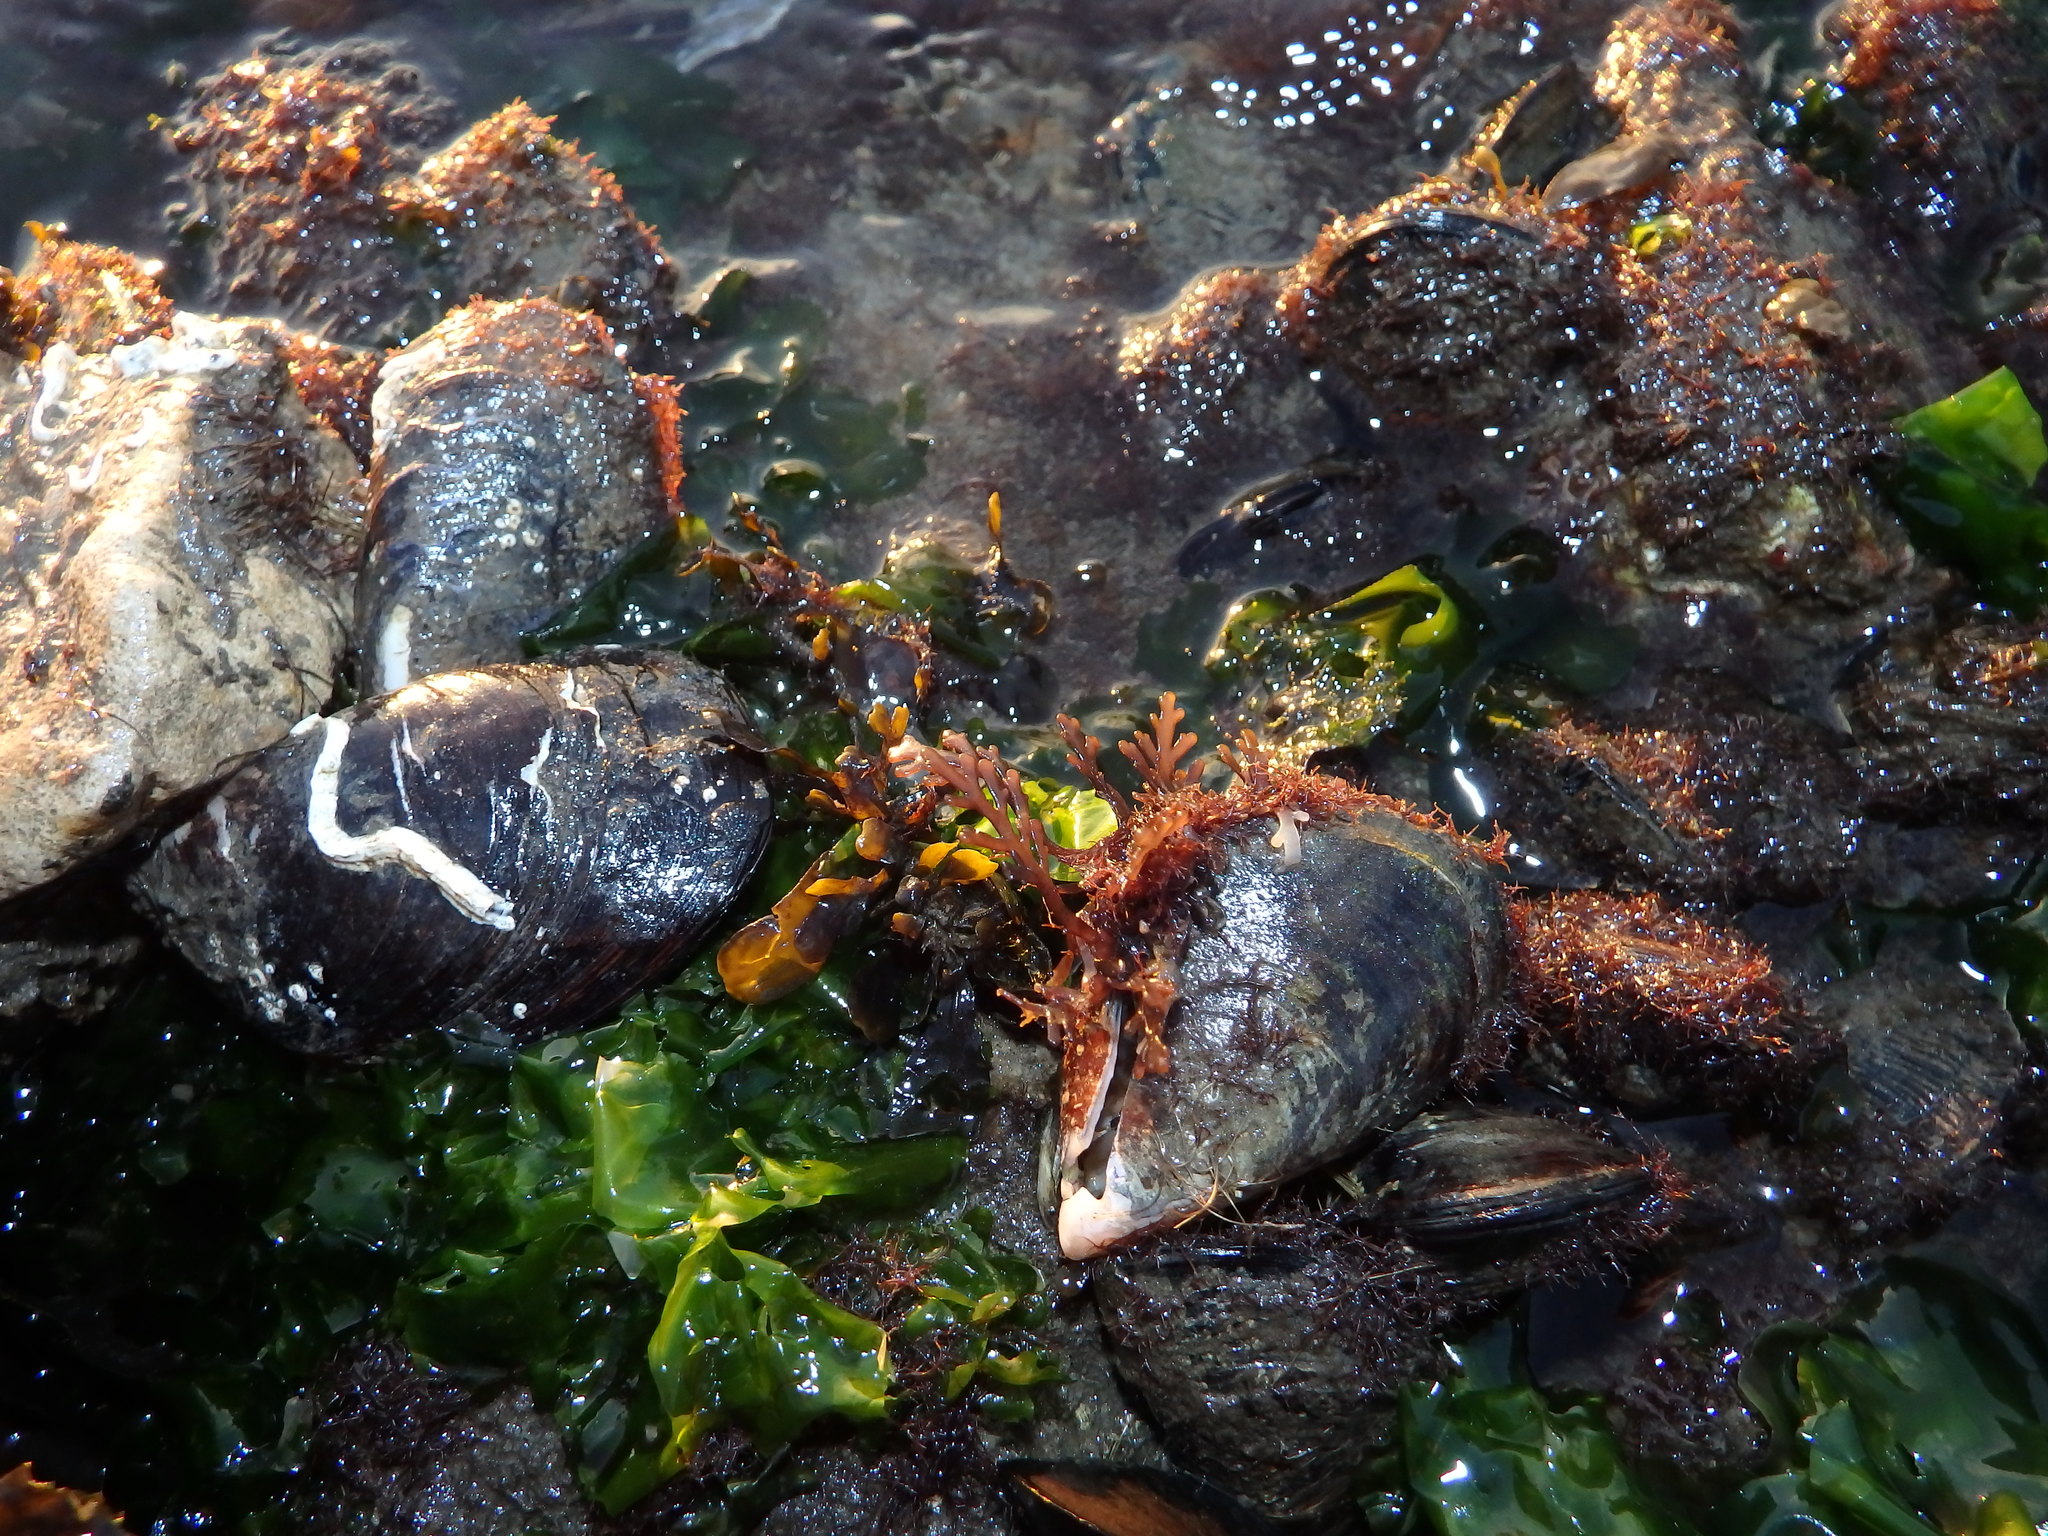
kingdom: Animalia
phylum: Mollusca
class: Bivalvia
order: Mytilida
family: Mytilidae
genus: Mytilus
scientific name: Mytilus galloprovincialis
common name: Mediterranean mussel
